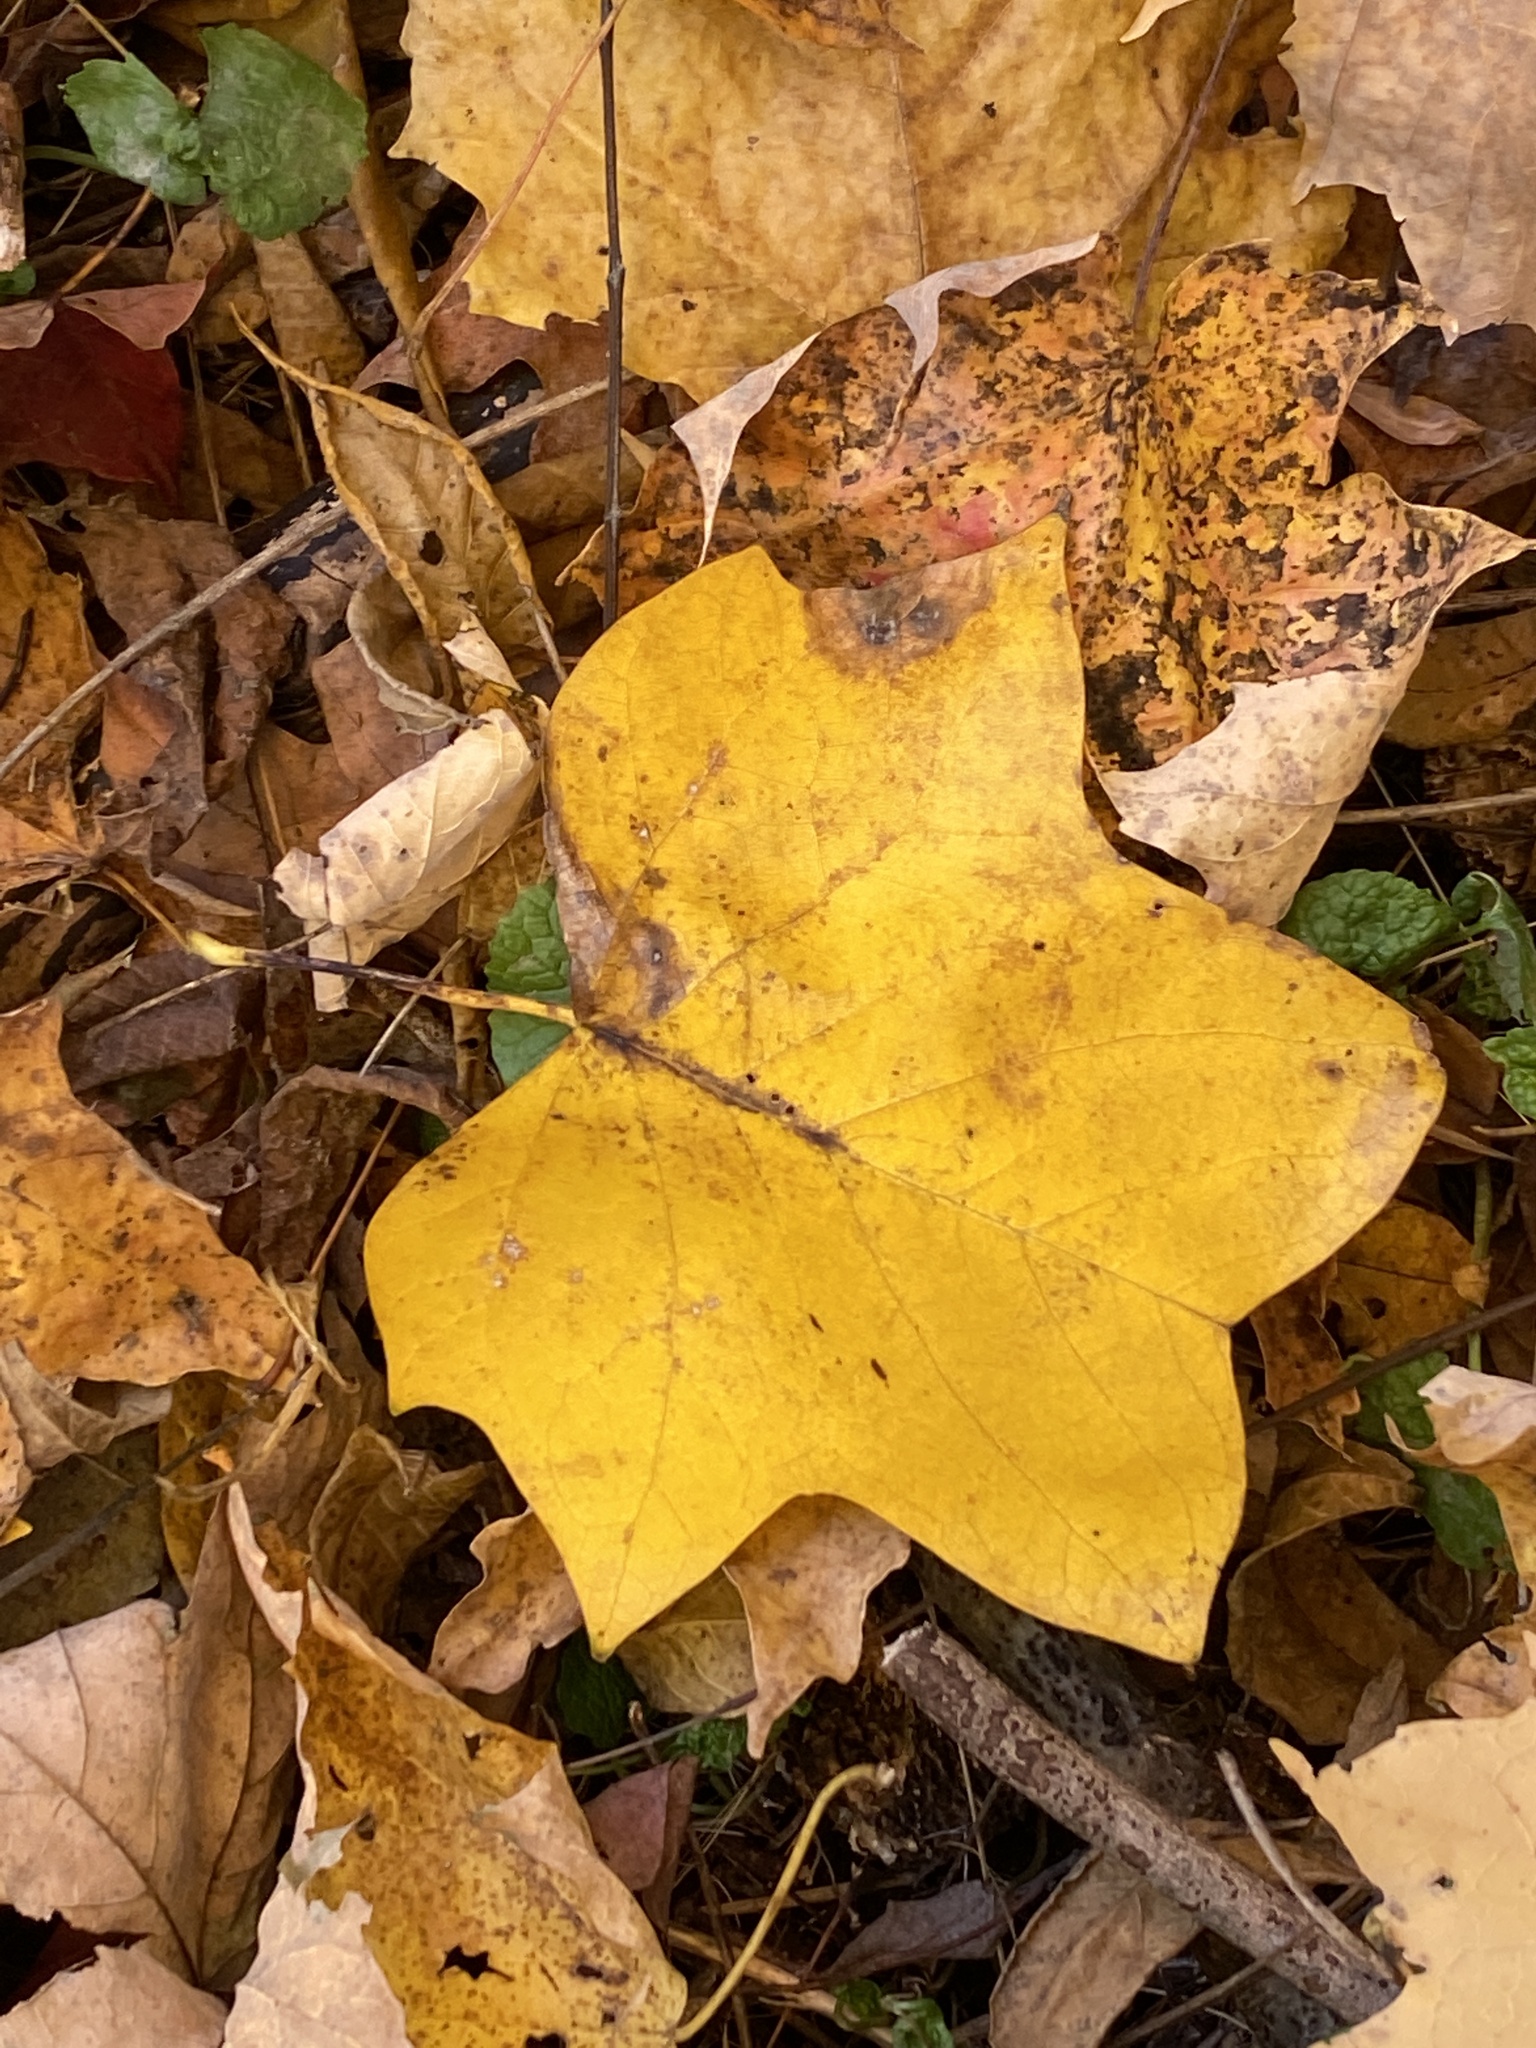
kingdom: Plantae
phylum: Tracheophyta
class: Magnoliopsida
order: Magnoliales
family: Magnoliaceae
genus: Liriodendron
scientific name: Liriodendron tulipifera
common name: Tulip tree
